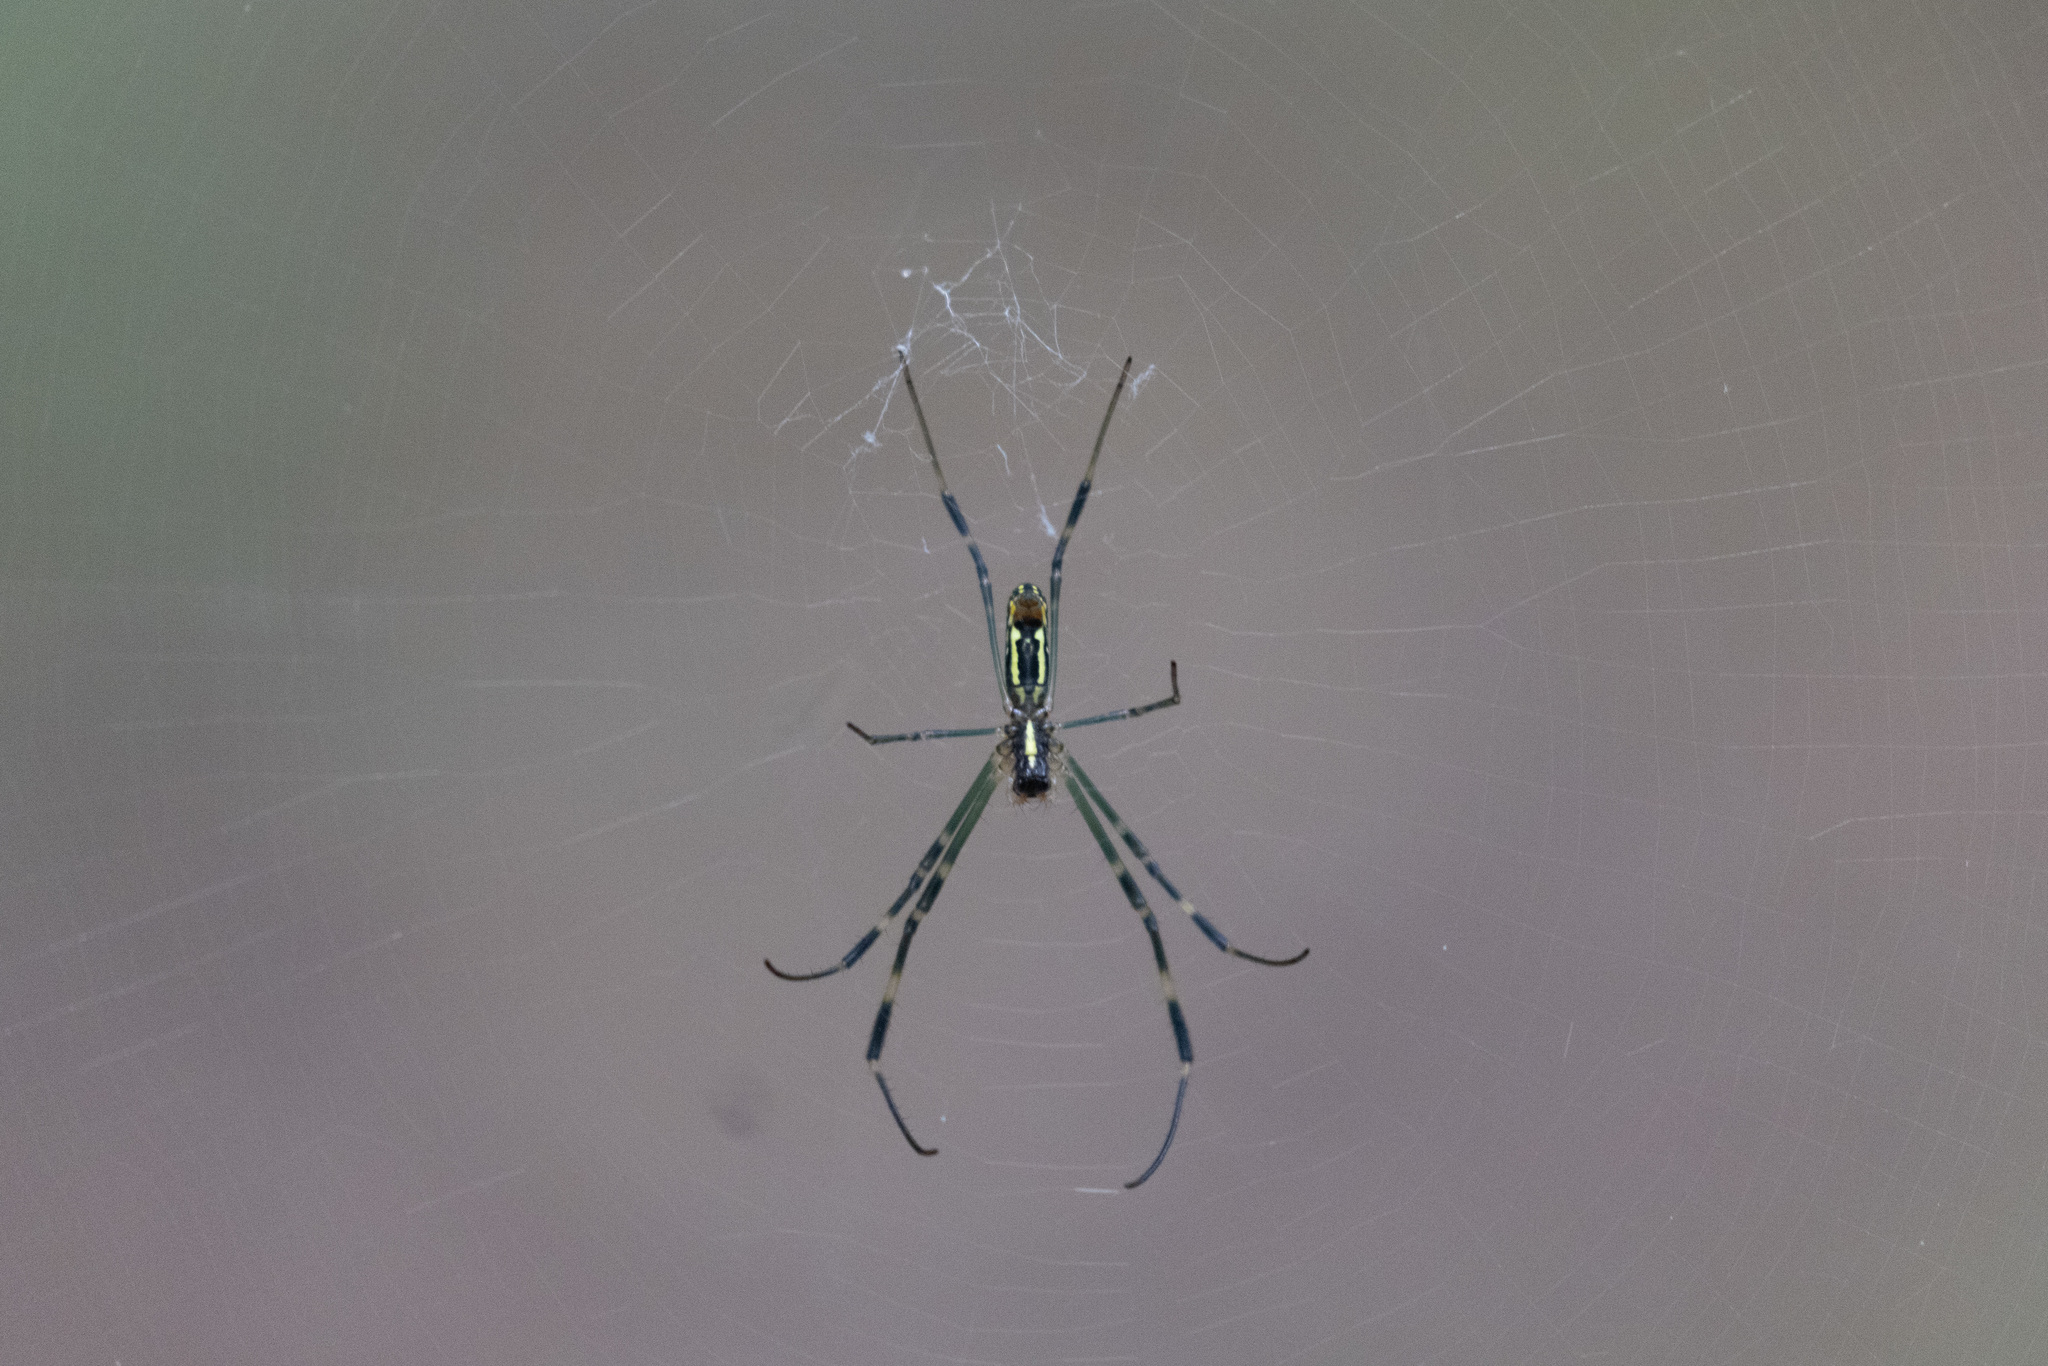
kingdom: Animalia
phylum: Arthropoda
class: Arachnida
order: Araneae
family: Araneidae
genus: Trichonephila
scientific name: Trichonephila clavata
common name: Jorō spider
